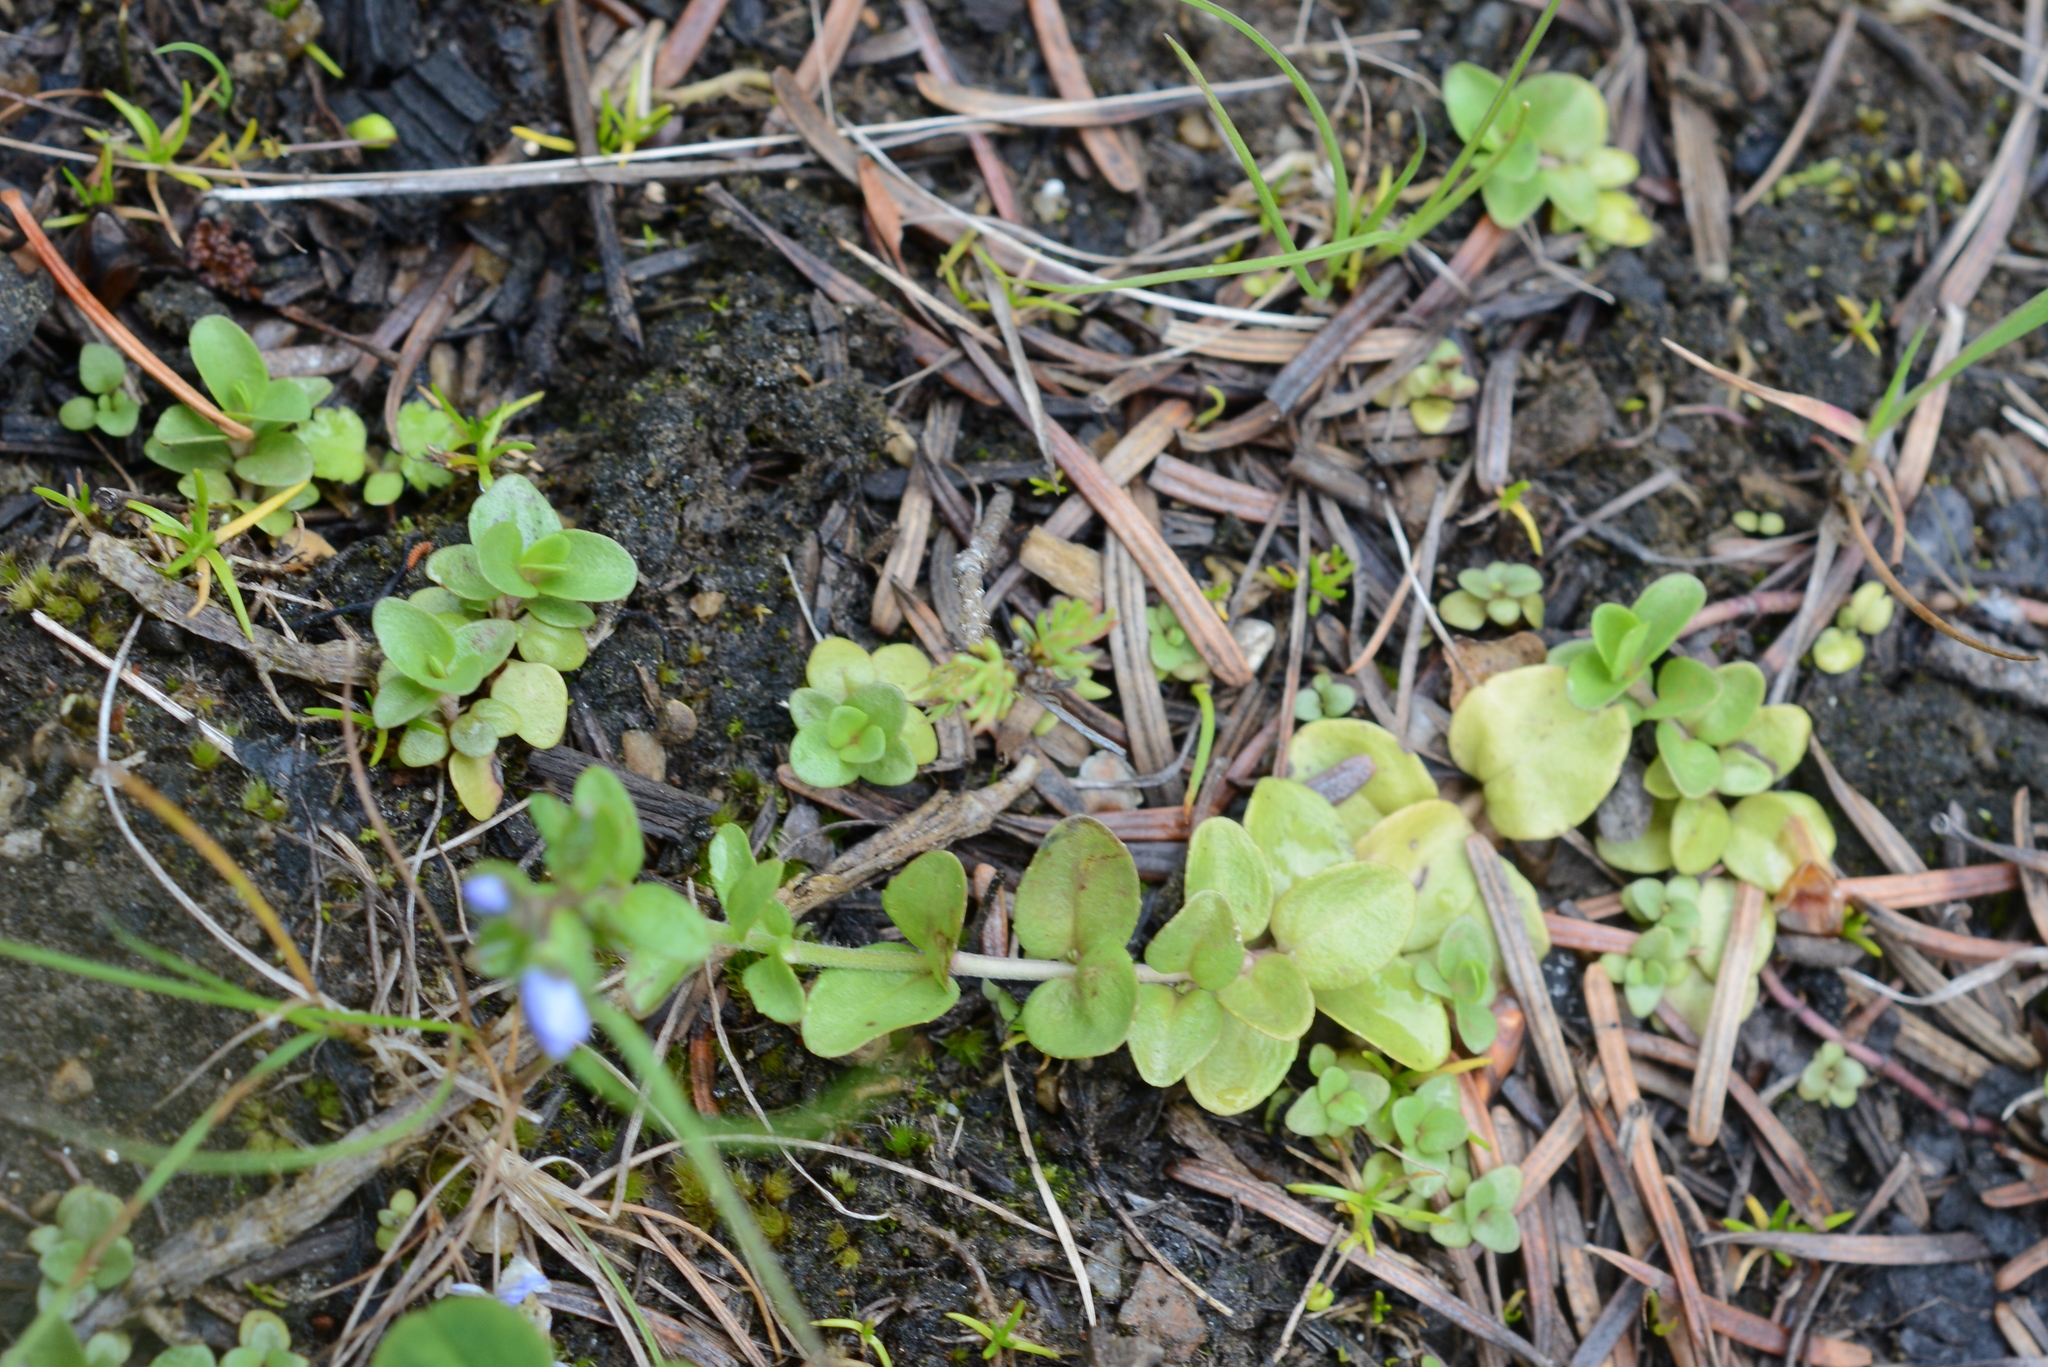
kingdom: Plantae
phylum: Tracheophyta
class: Magnoliopsida
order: Lamiales
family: Plantaginaceae
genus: Veronica
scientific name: Veronica serpyllifolia
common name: Thyme-leaved speedwell
